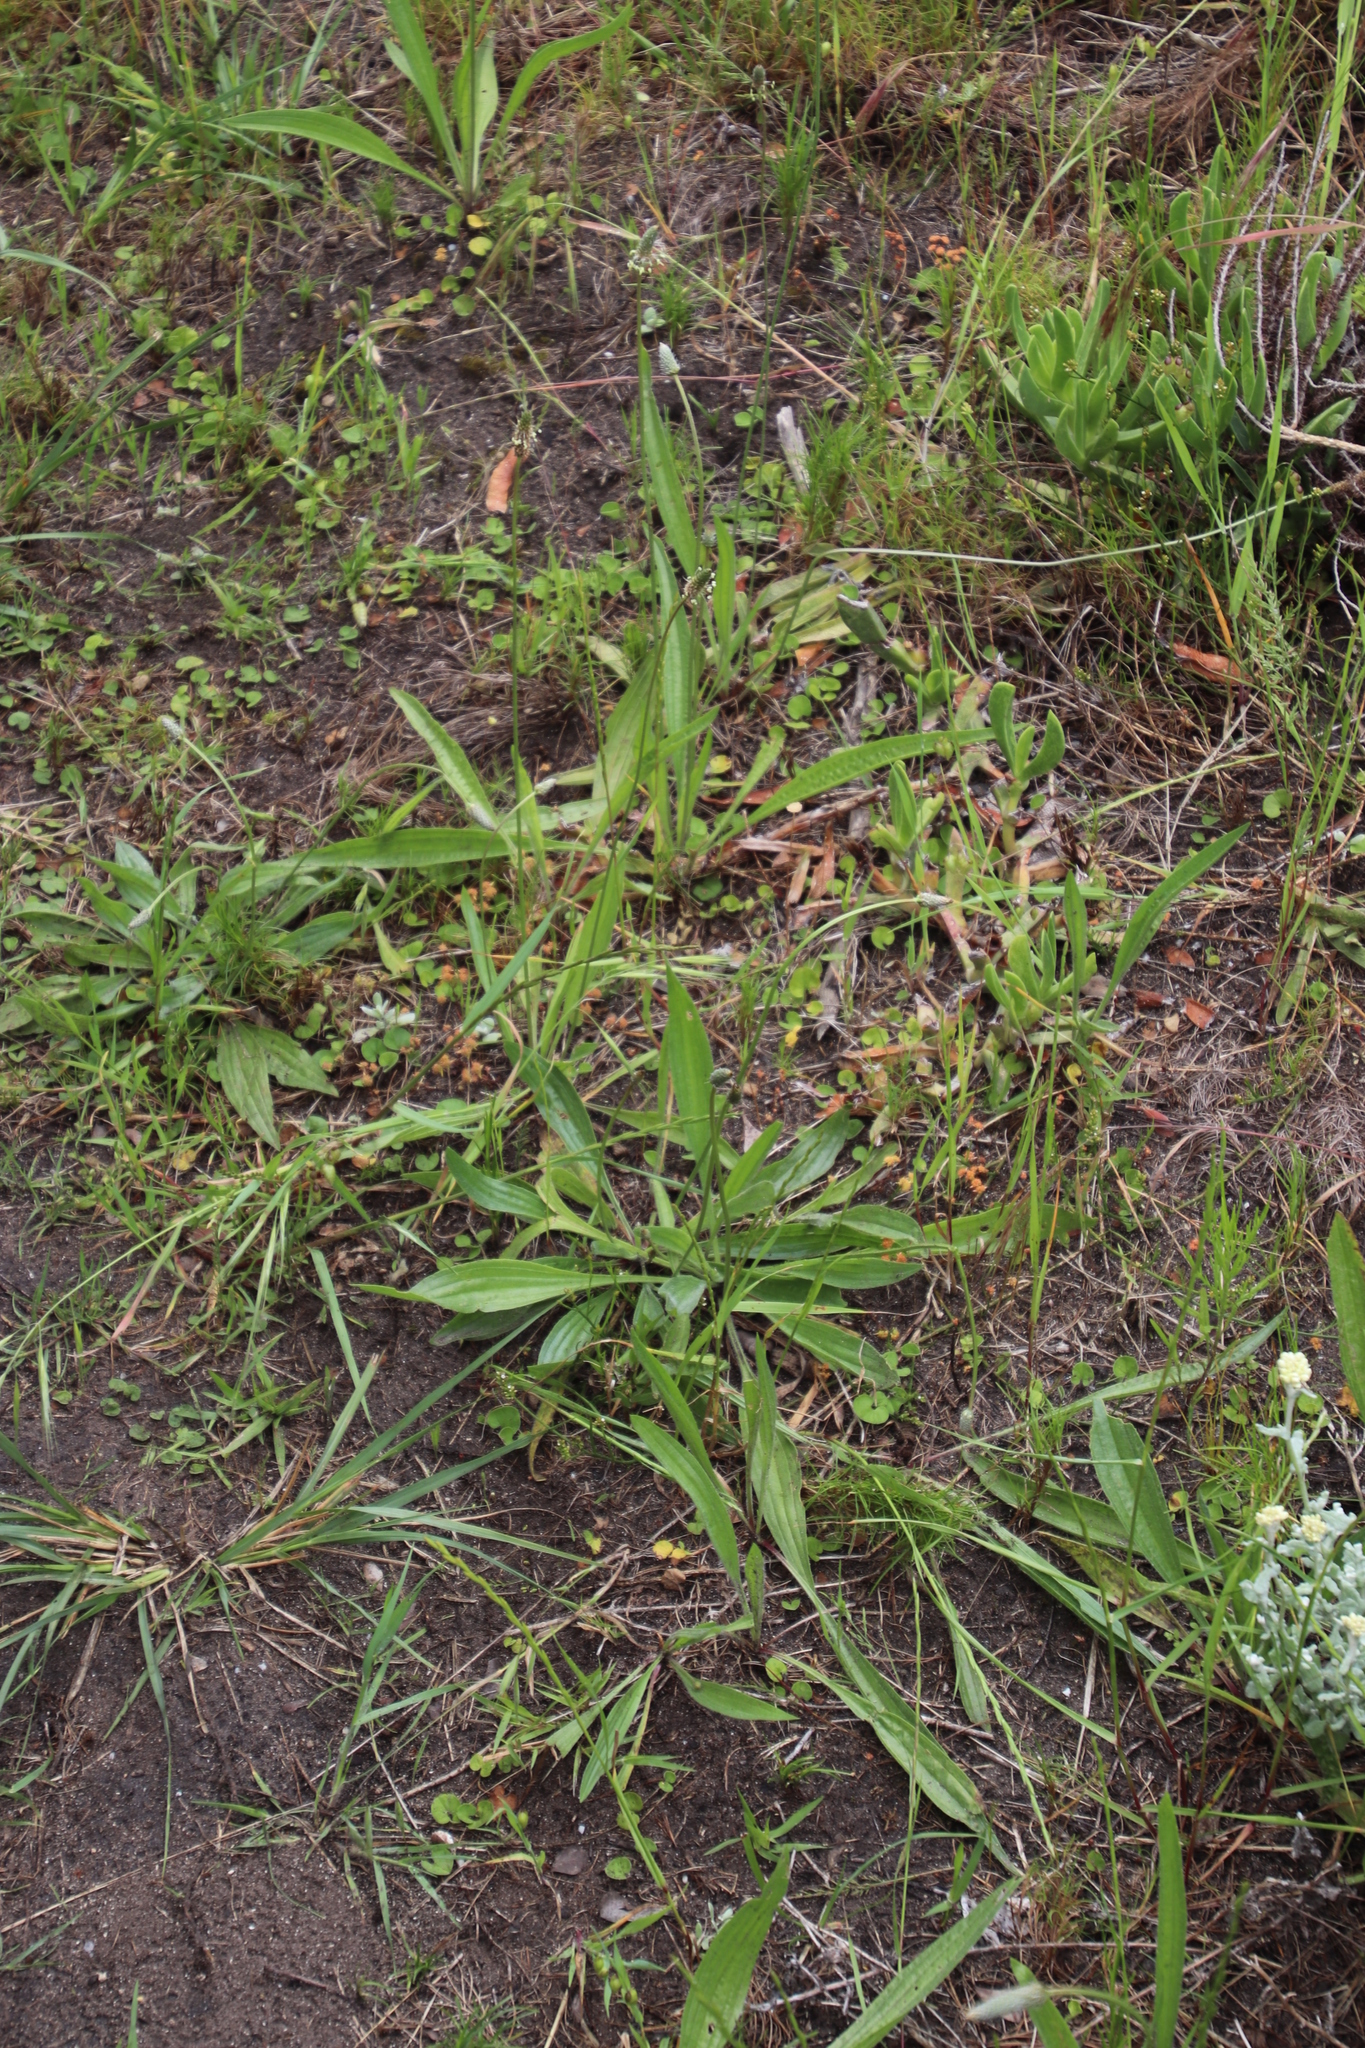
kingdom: Plantae
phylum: Tracheophyta
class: Magnoliopsida
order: Lamiales
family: Plantaginaceae
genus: Plantago
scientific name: Plantago lanceolata
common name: Ribwort plantain
